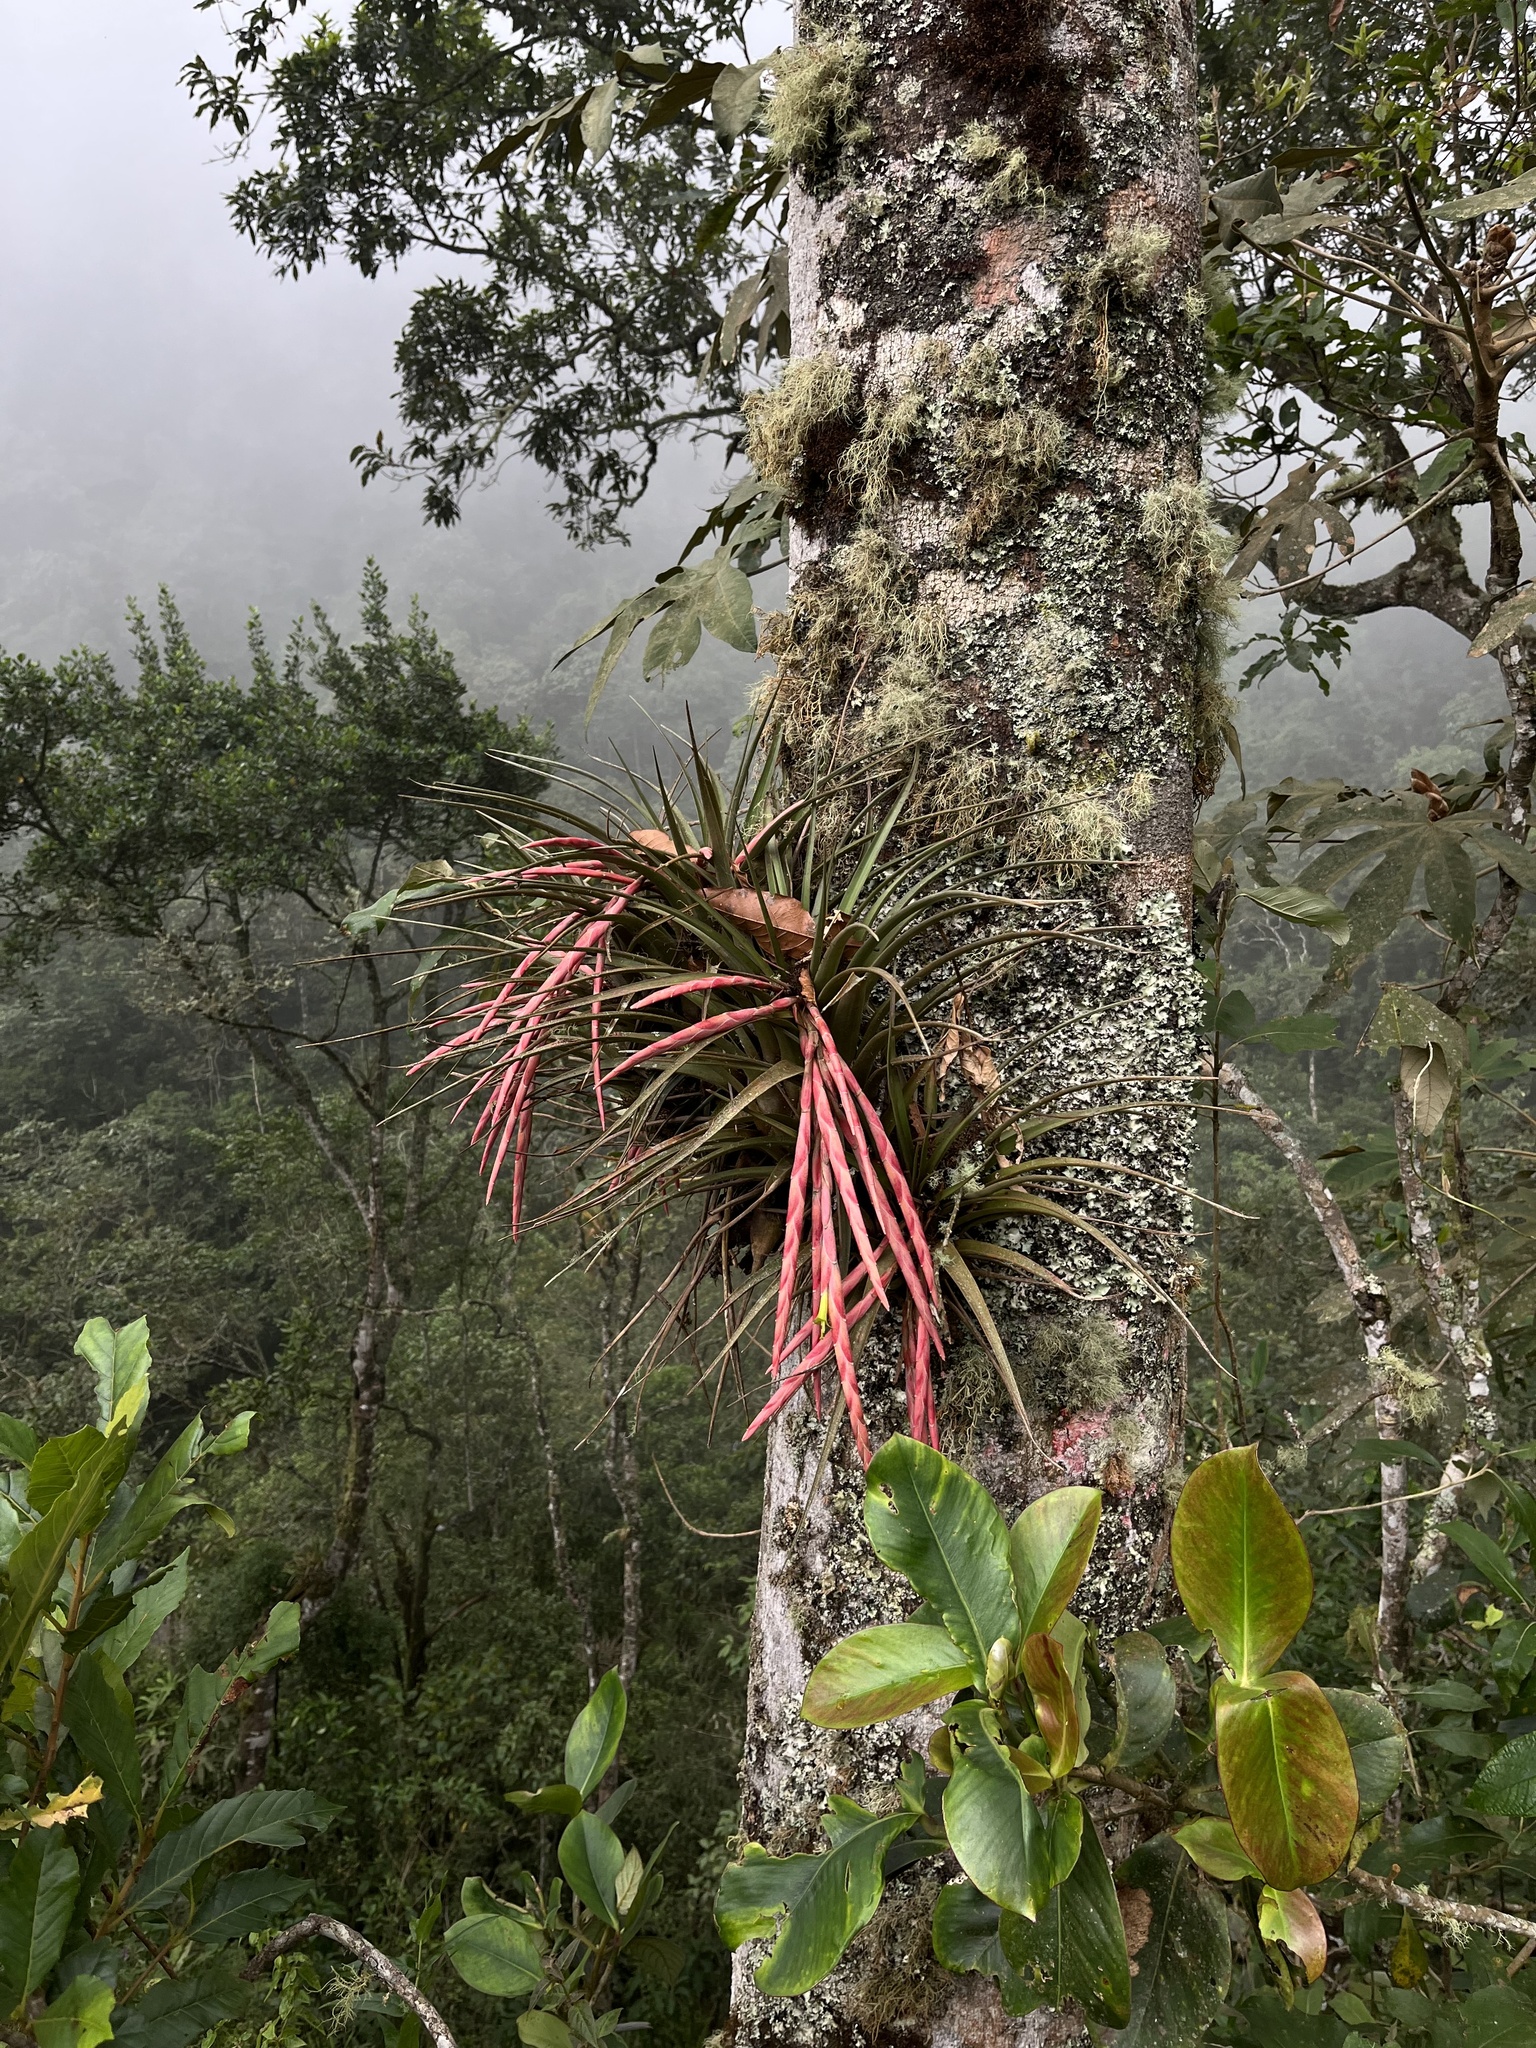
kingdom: Plantae
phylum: Tracheophyta
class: Liliopsida
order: Poales
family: Bromeliaceae
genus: Vriesea
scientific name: Vriesea pereziana
